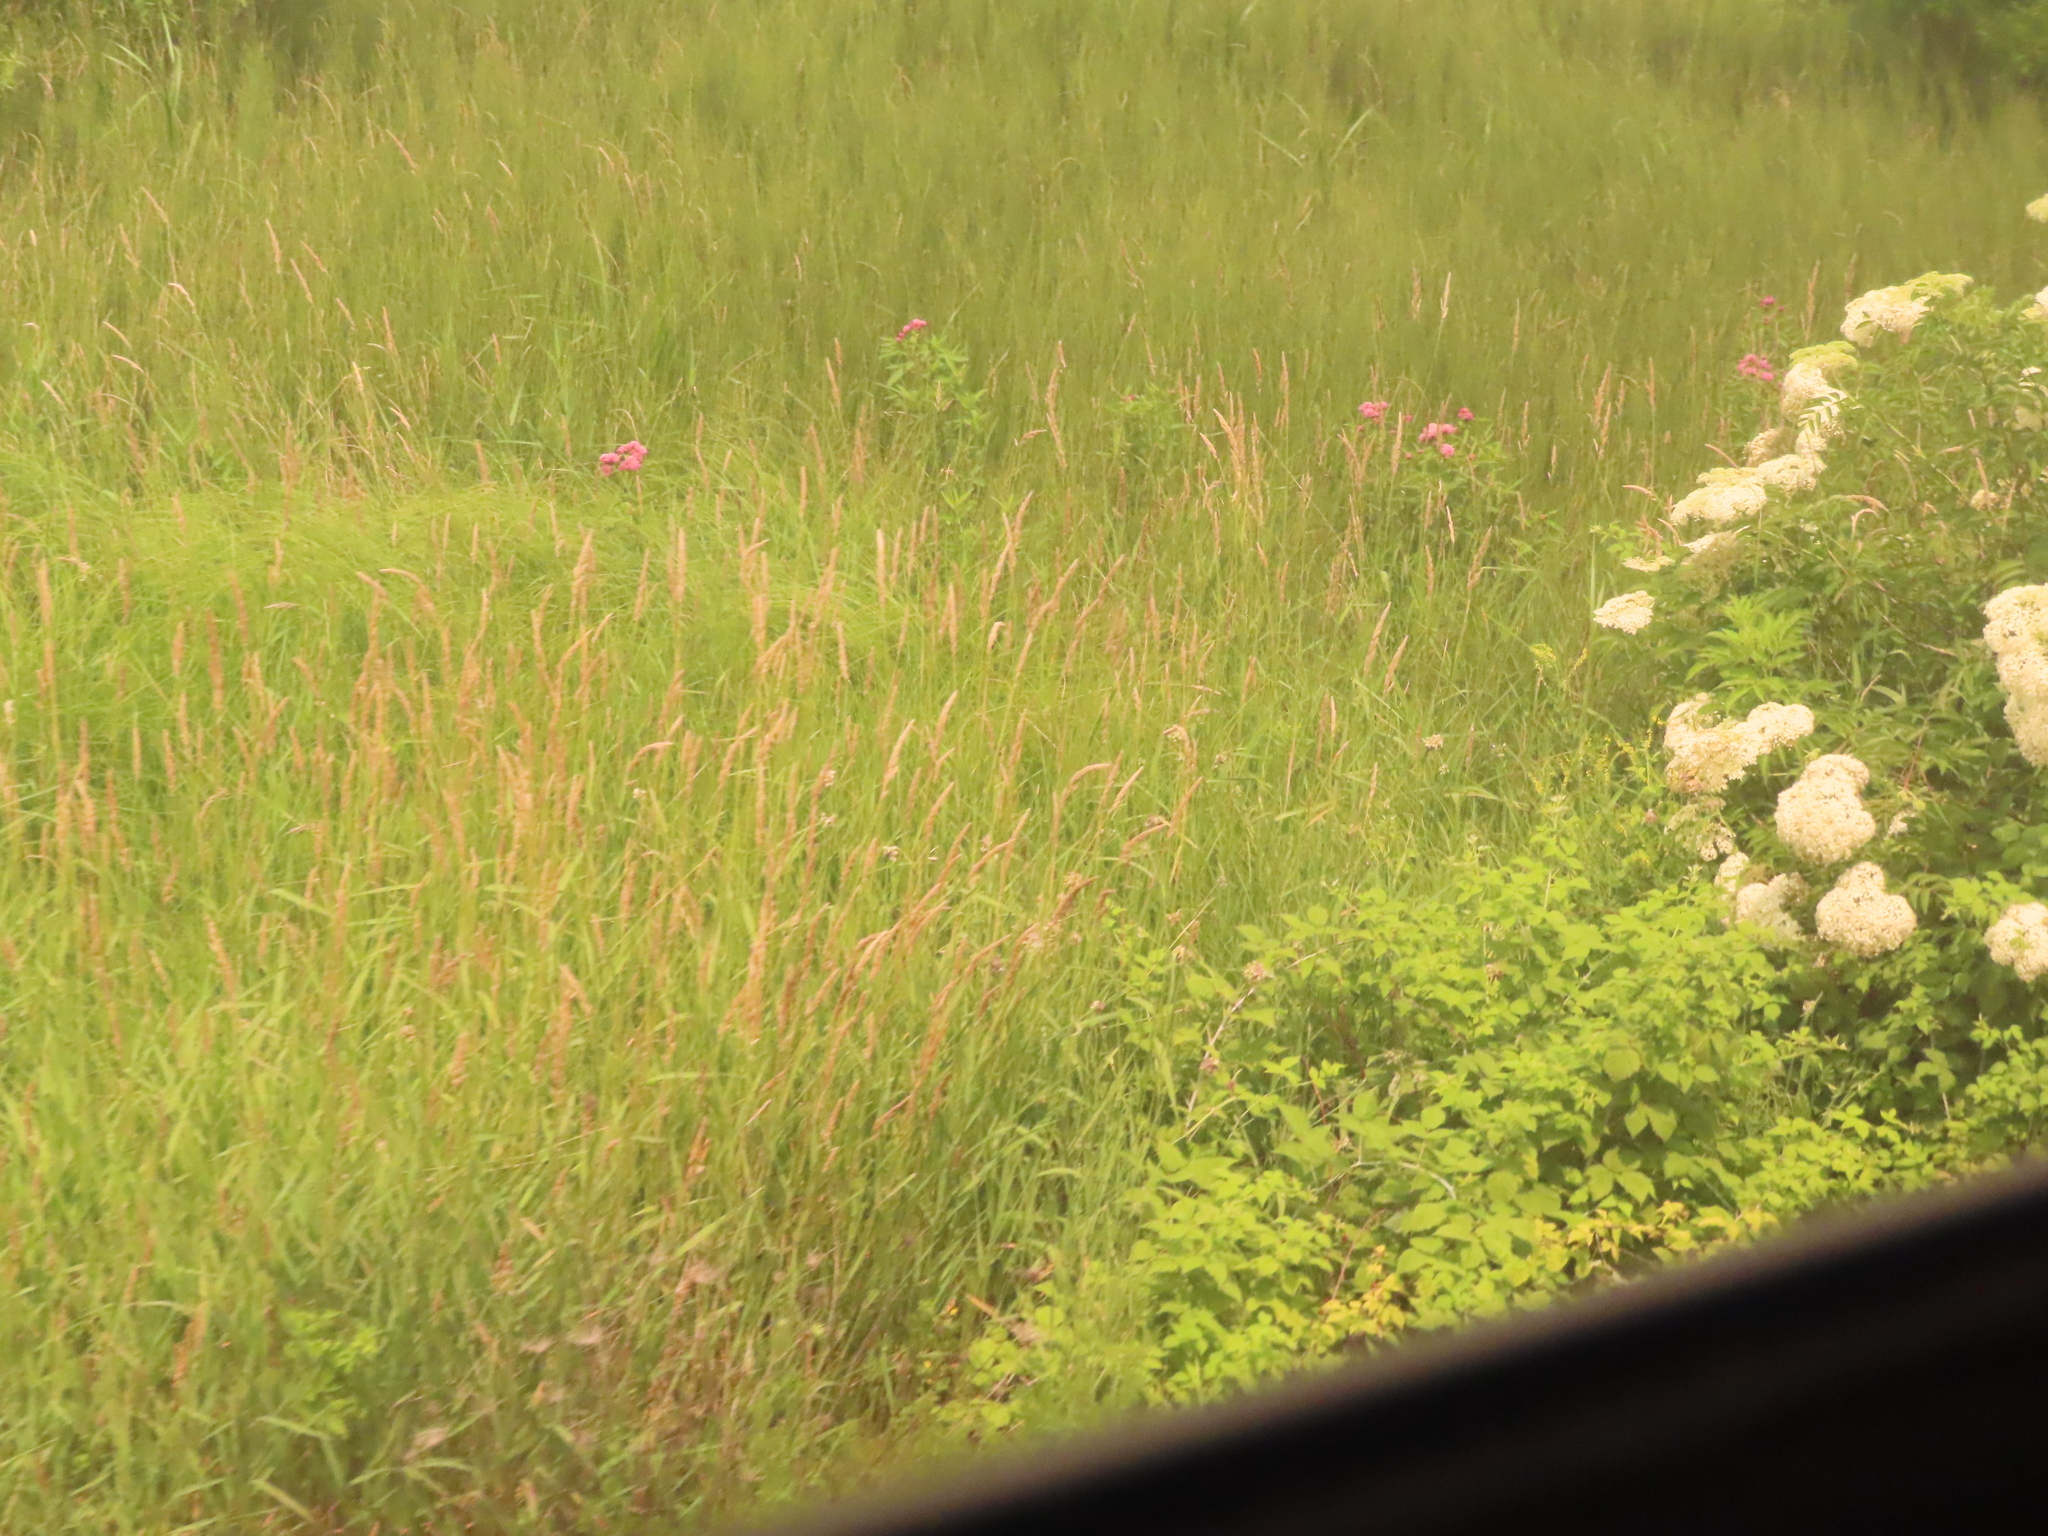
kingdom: Plantae
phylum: Tracheophyta
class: Magnoliopsida
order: Gentianales
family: Apocynaceae
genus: Asclepias
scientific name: Asclepias incarnata
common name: Swamp milkweed
